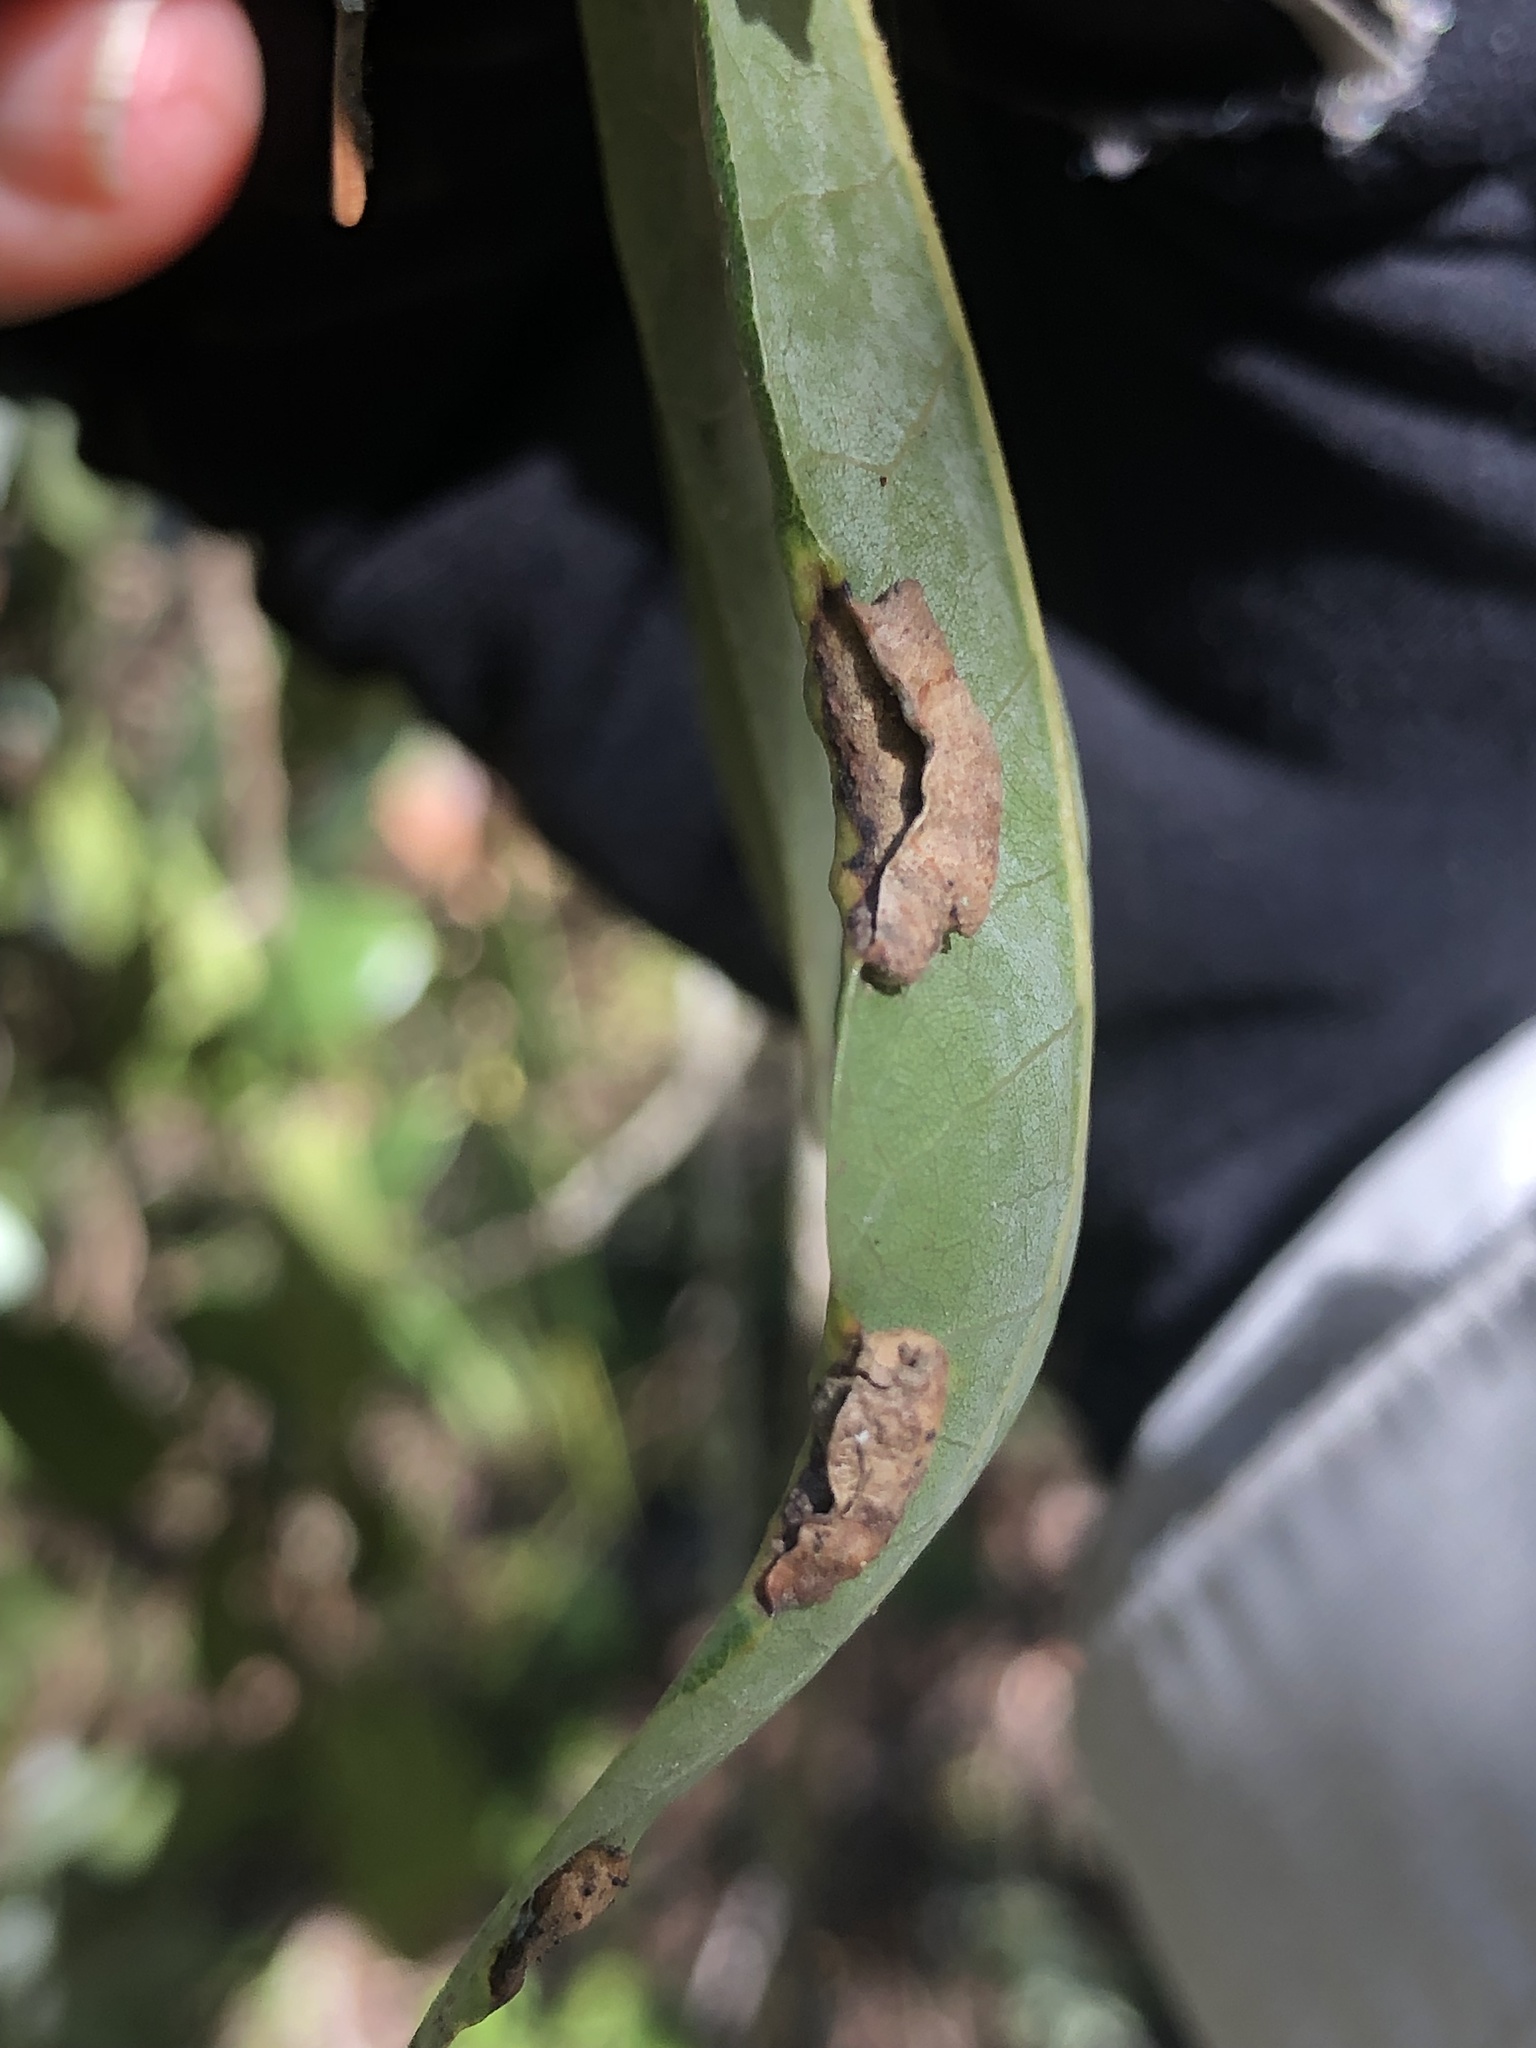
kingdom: Animalia
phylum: Arthropoda
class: Insecta
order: Diptera
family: Cecidomyiidae
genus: Dasineura
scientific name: Dasineura silvestrii
